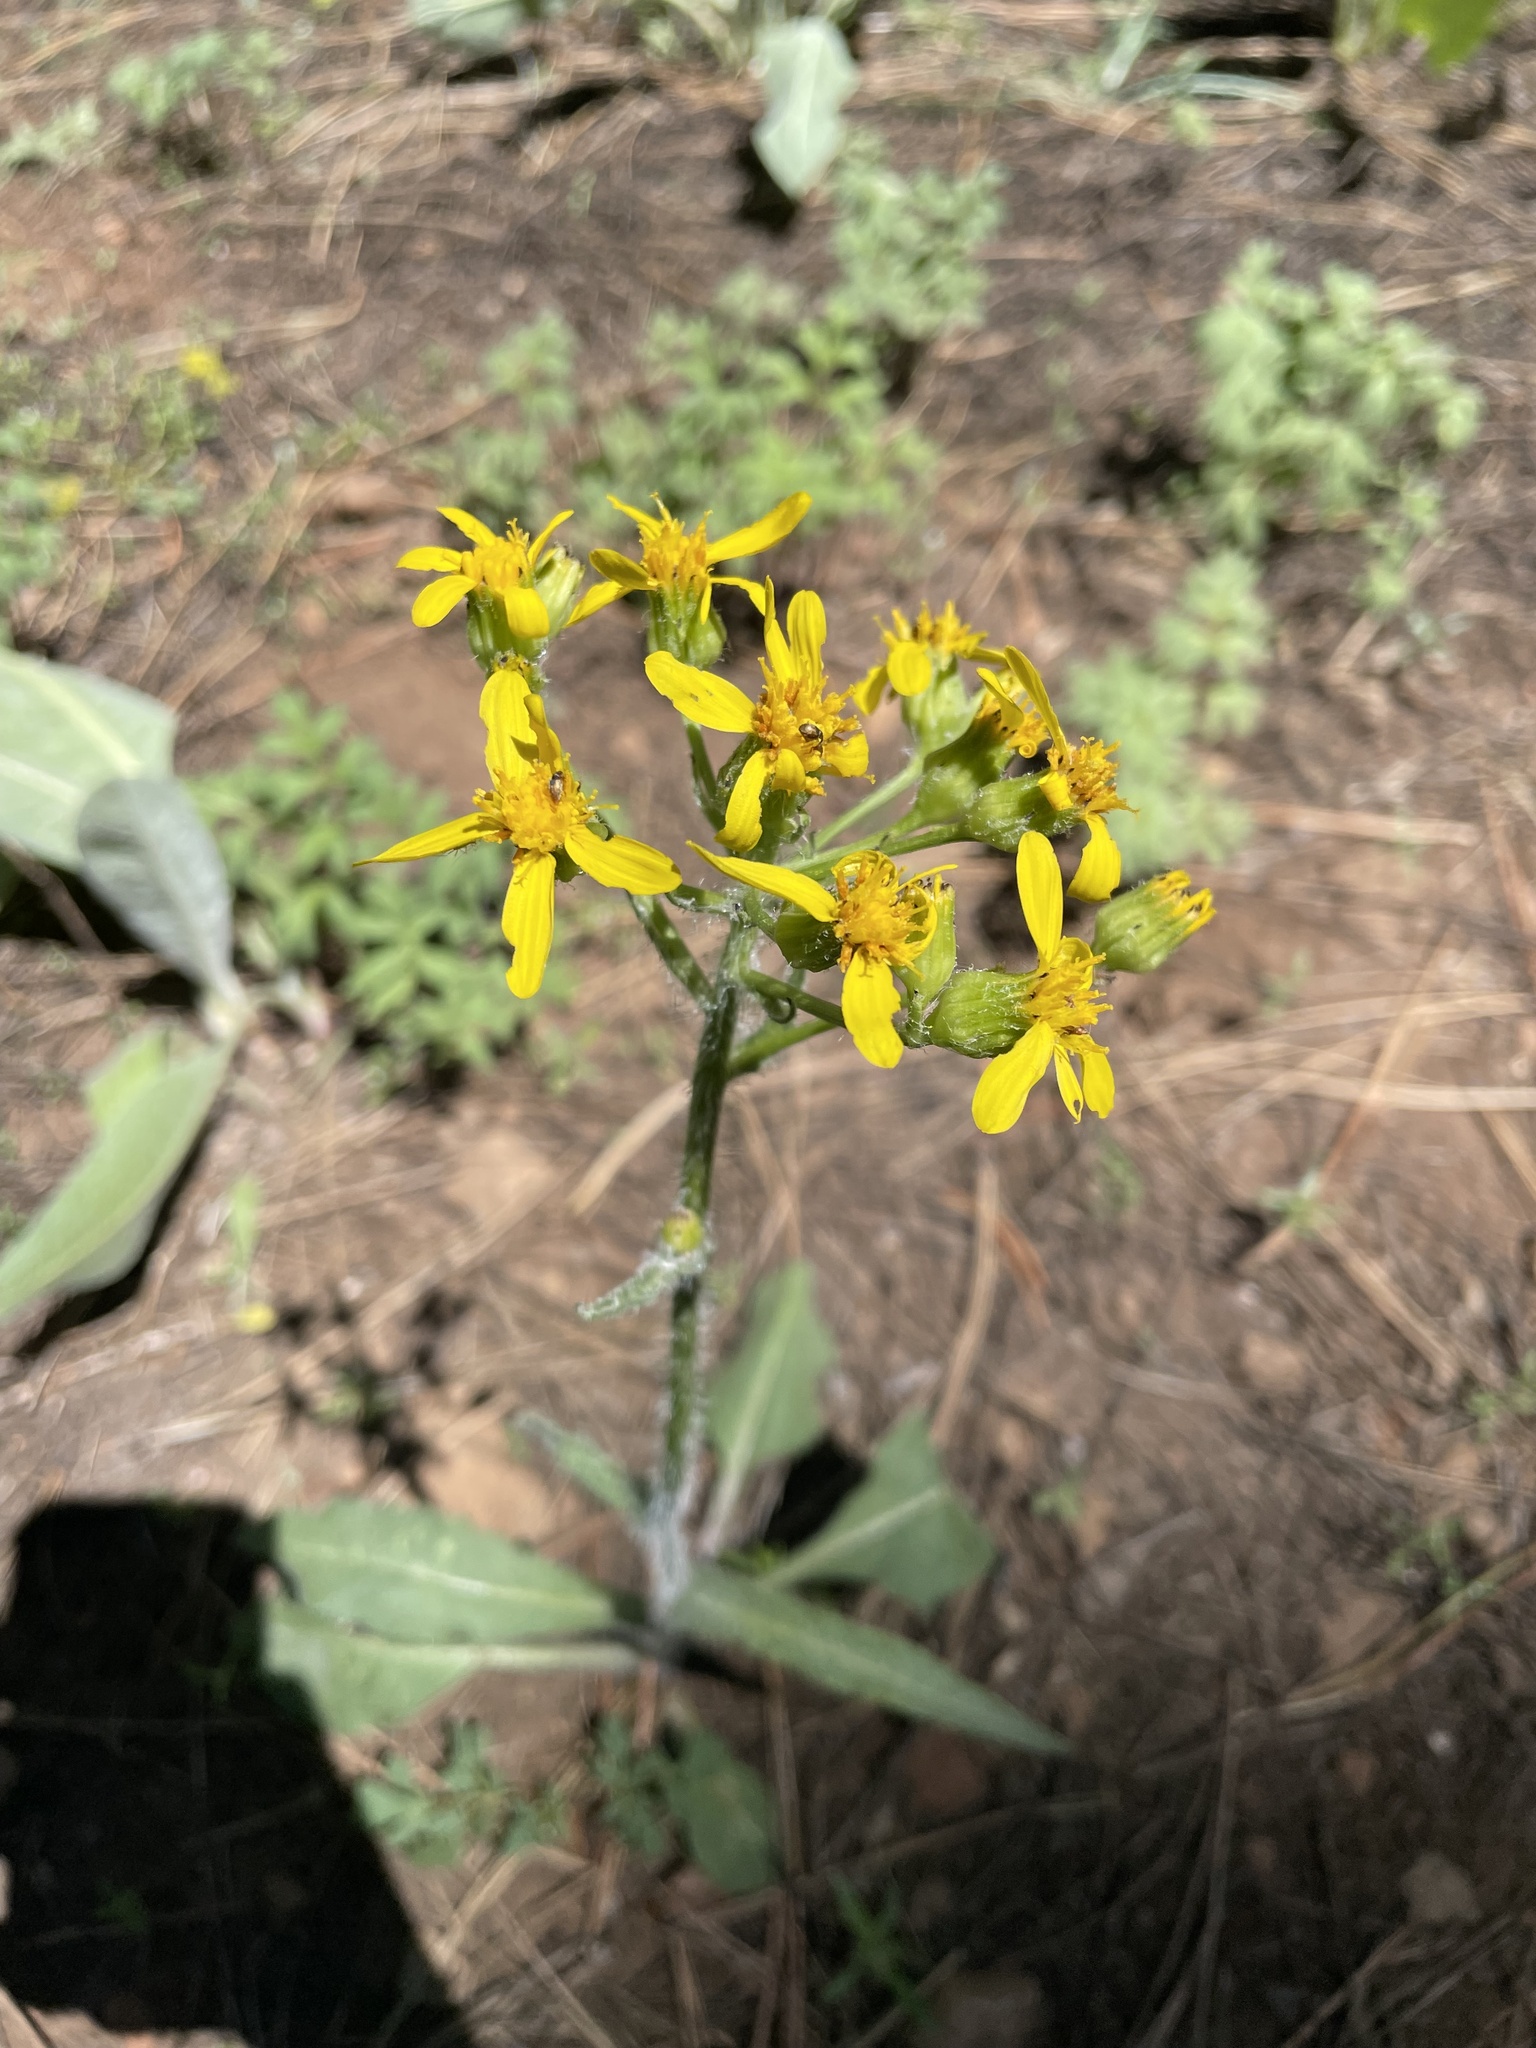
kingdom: Plantae
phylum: Tracheophyta
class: Magnoliopsida
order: Asterales
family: Asteraceae
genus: Senecio
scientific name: Senecio integerrimus
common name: Gaugeplant
